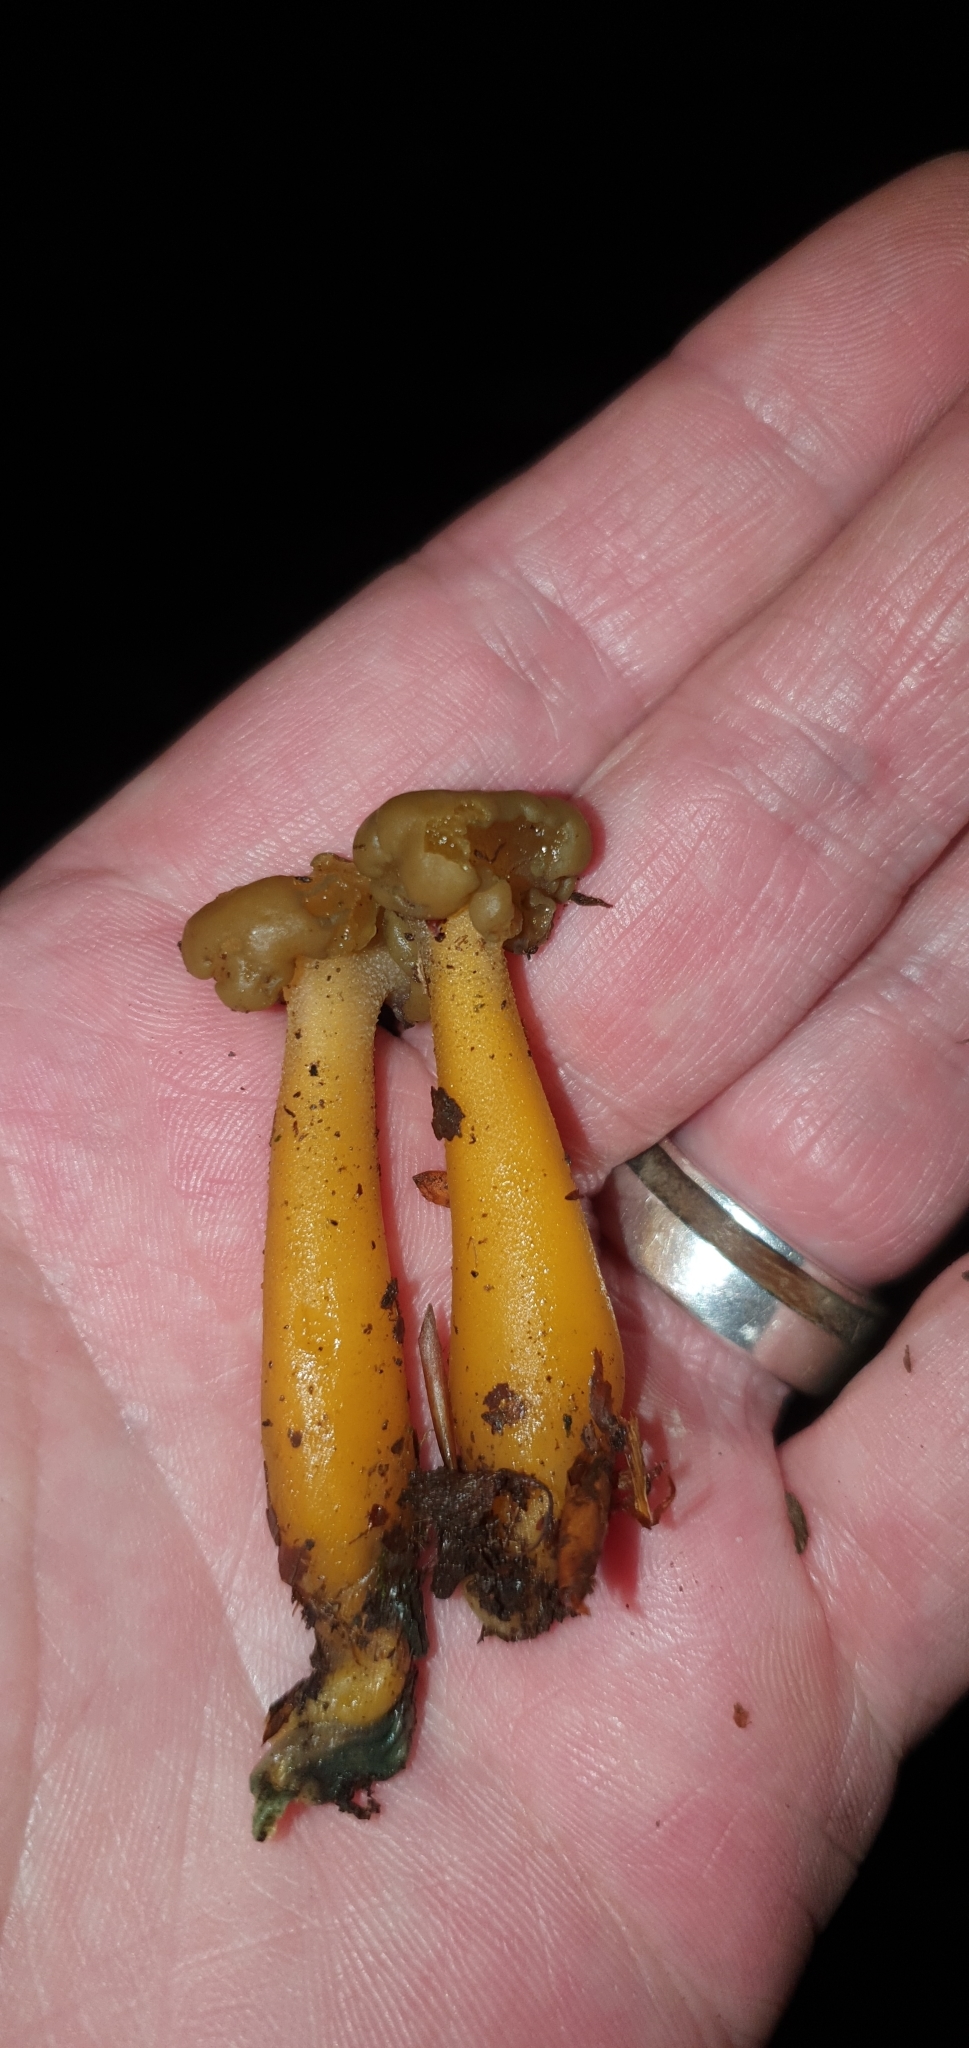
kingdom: Fungi
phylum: Ascomycota
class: Leotiomycetes
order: Leotiales
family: Leotiaceae
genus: Leotia
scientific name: Leotia lubrica
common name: Jellybaby
